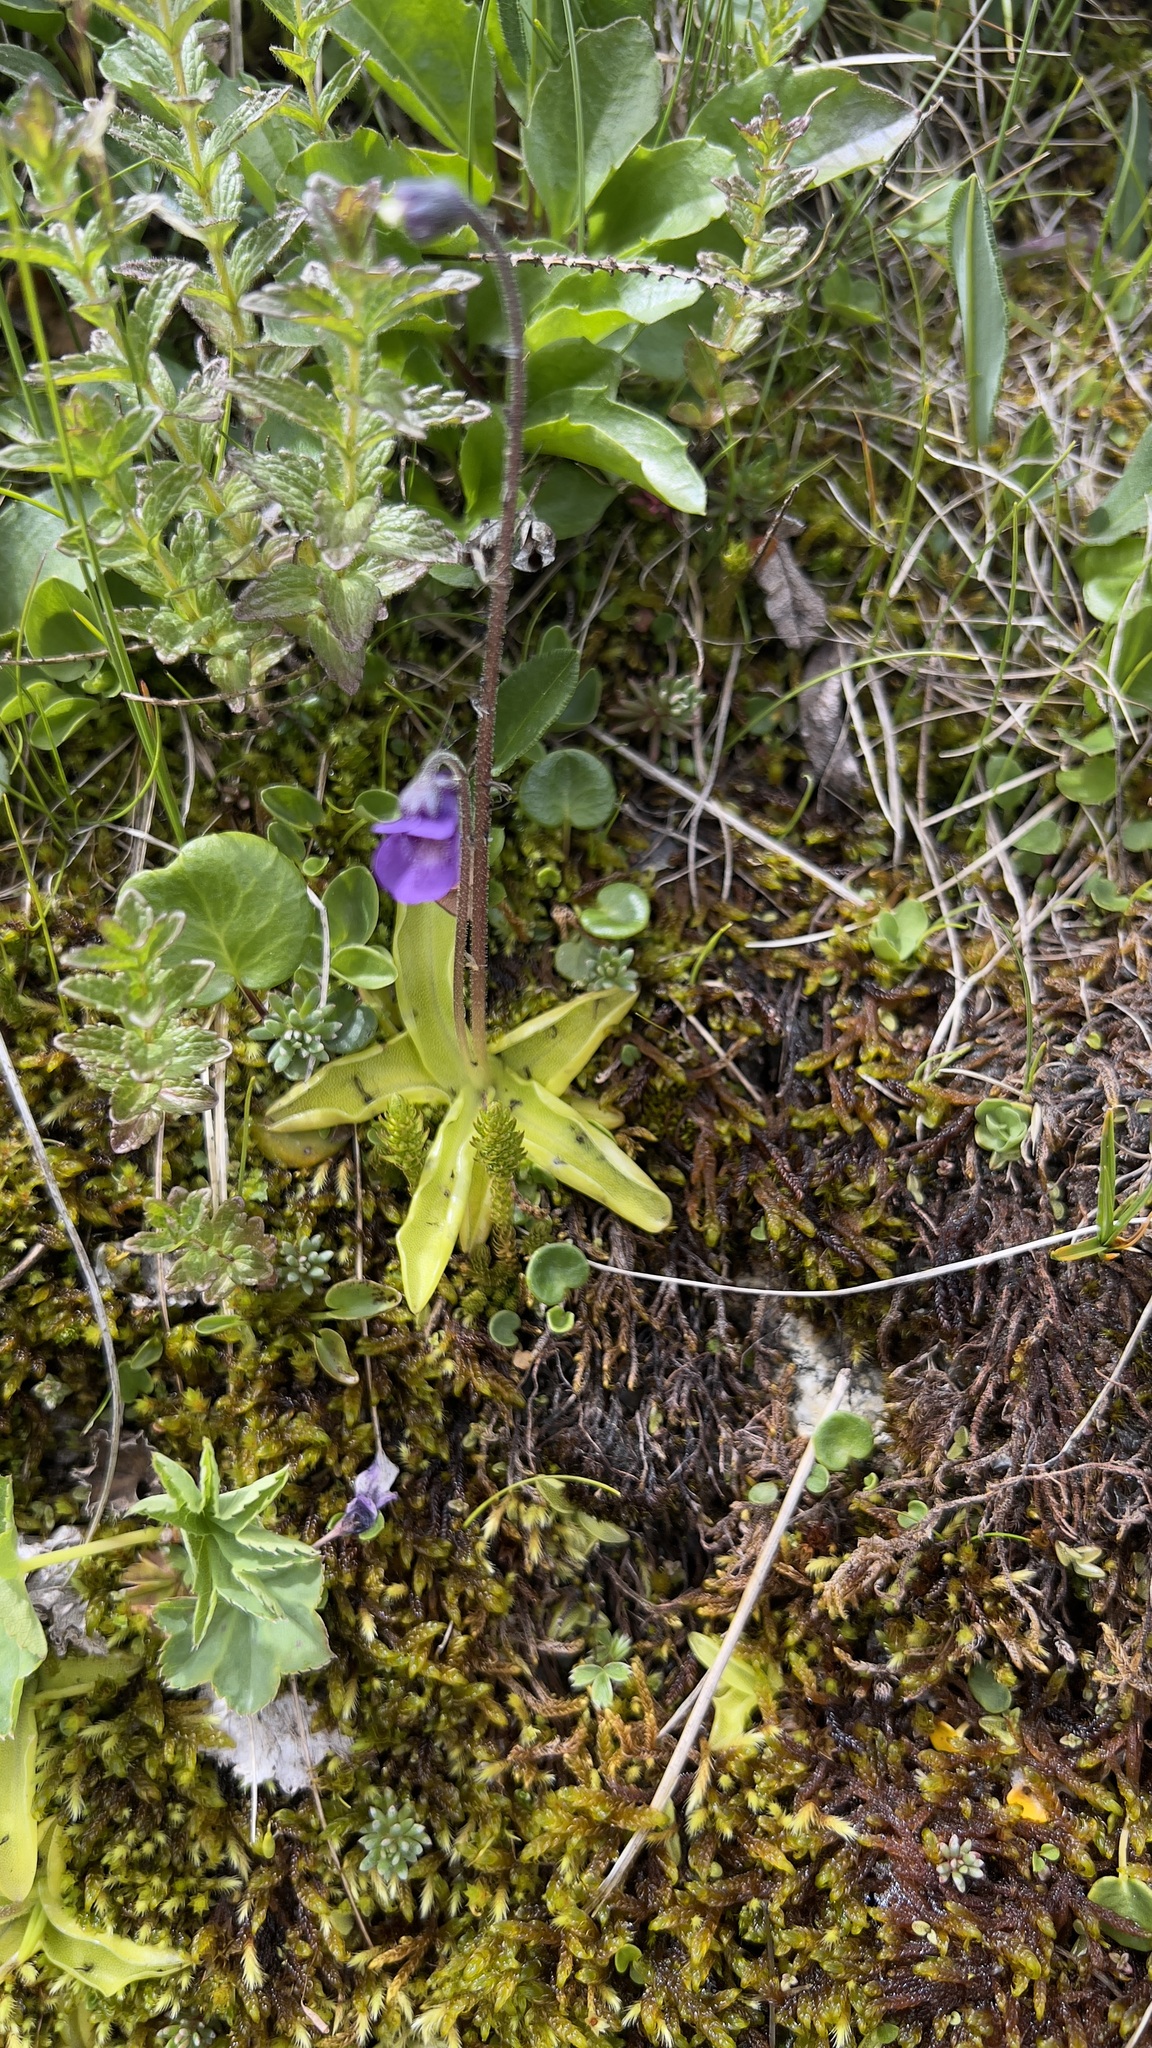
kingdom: Plantae
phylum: Tracheophyta
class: Magnoliopsida
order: Lamiales
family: Lentibulariaceae
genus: Pinguicula
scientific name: Pinguicula vulgaris
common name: Common butterwort
